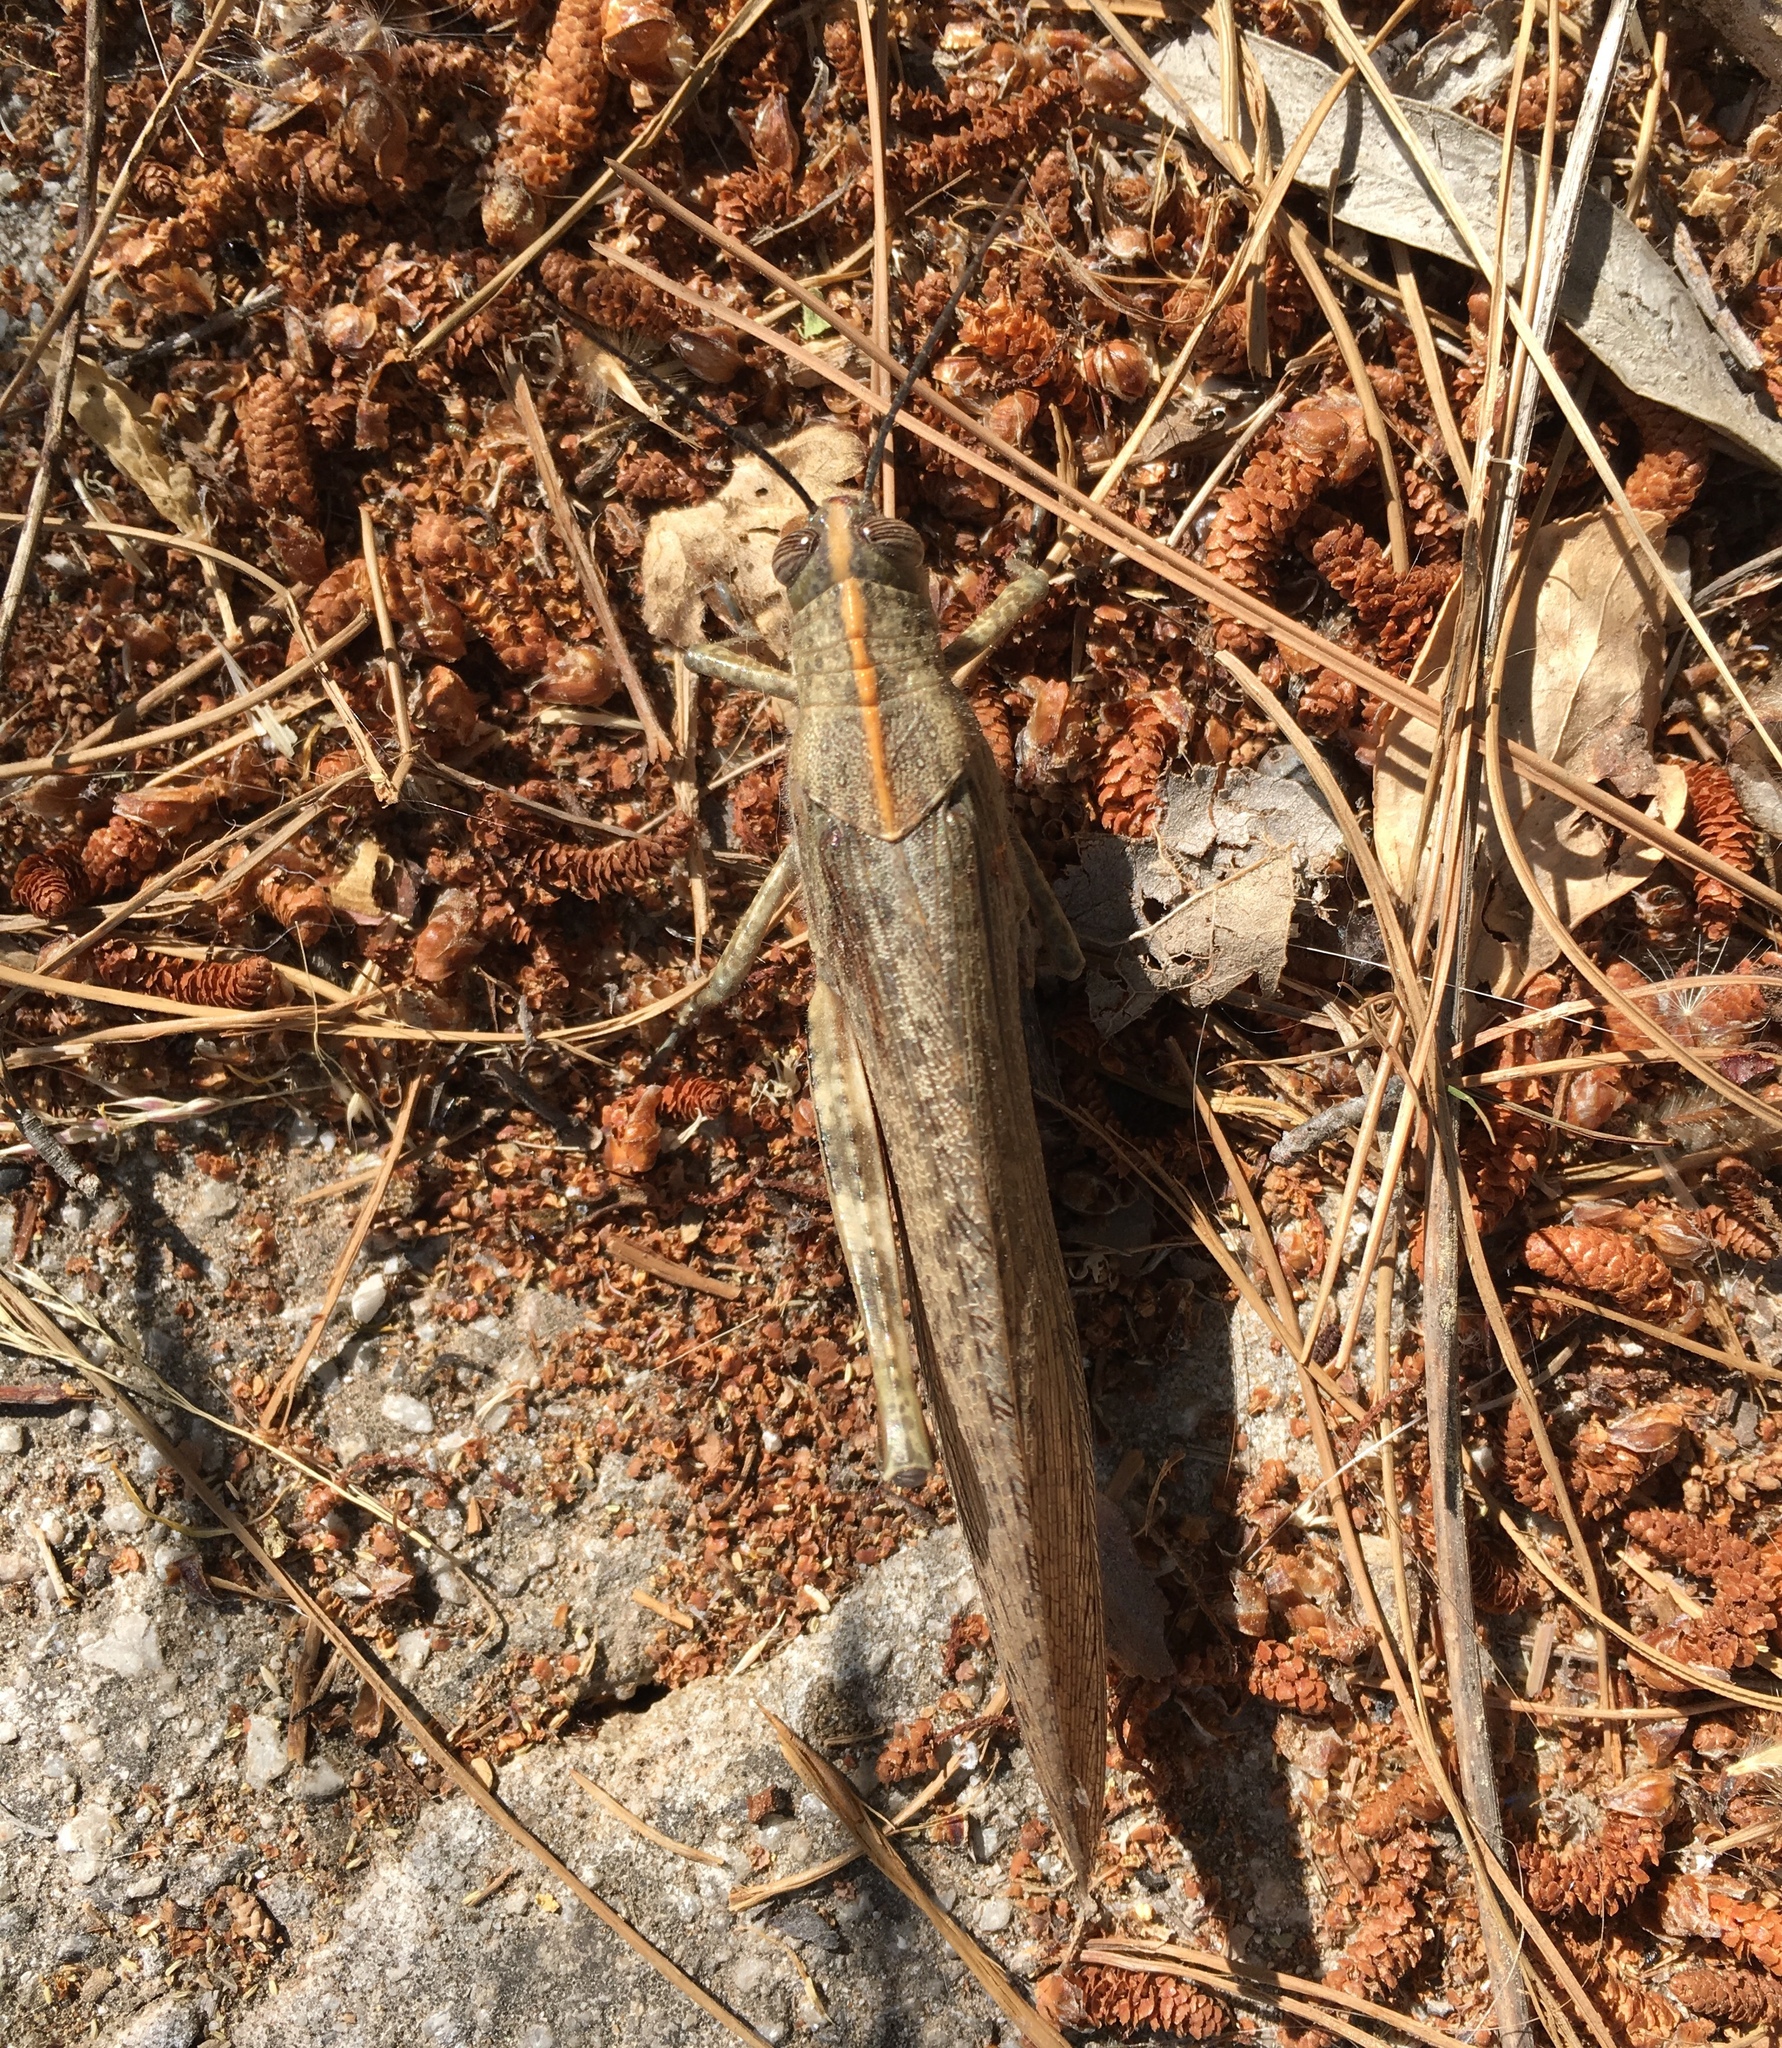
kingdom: Animalia
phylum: Arthropoda
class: Insecta
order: Orthoptera
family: Acrididae
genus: Anacridium
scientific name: Anacridium aegyptium
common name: Egyptian grasshopper
